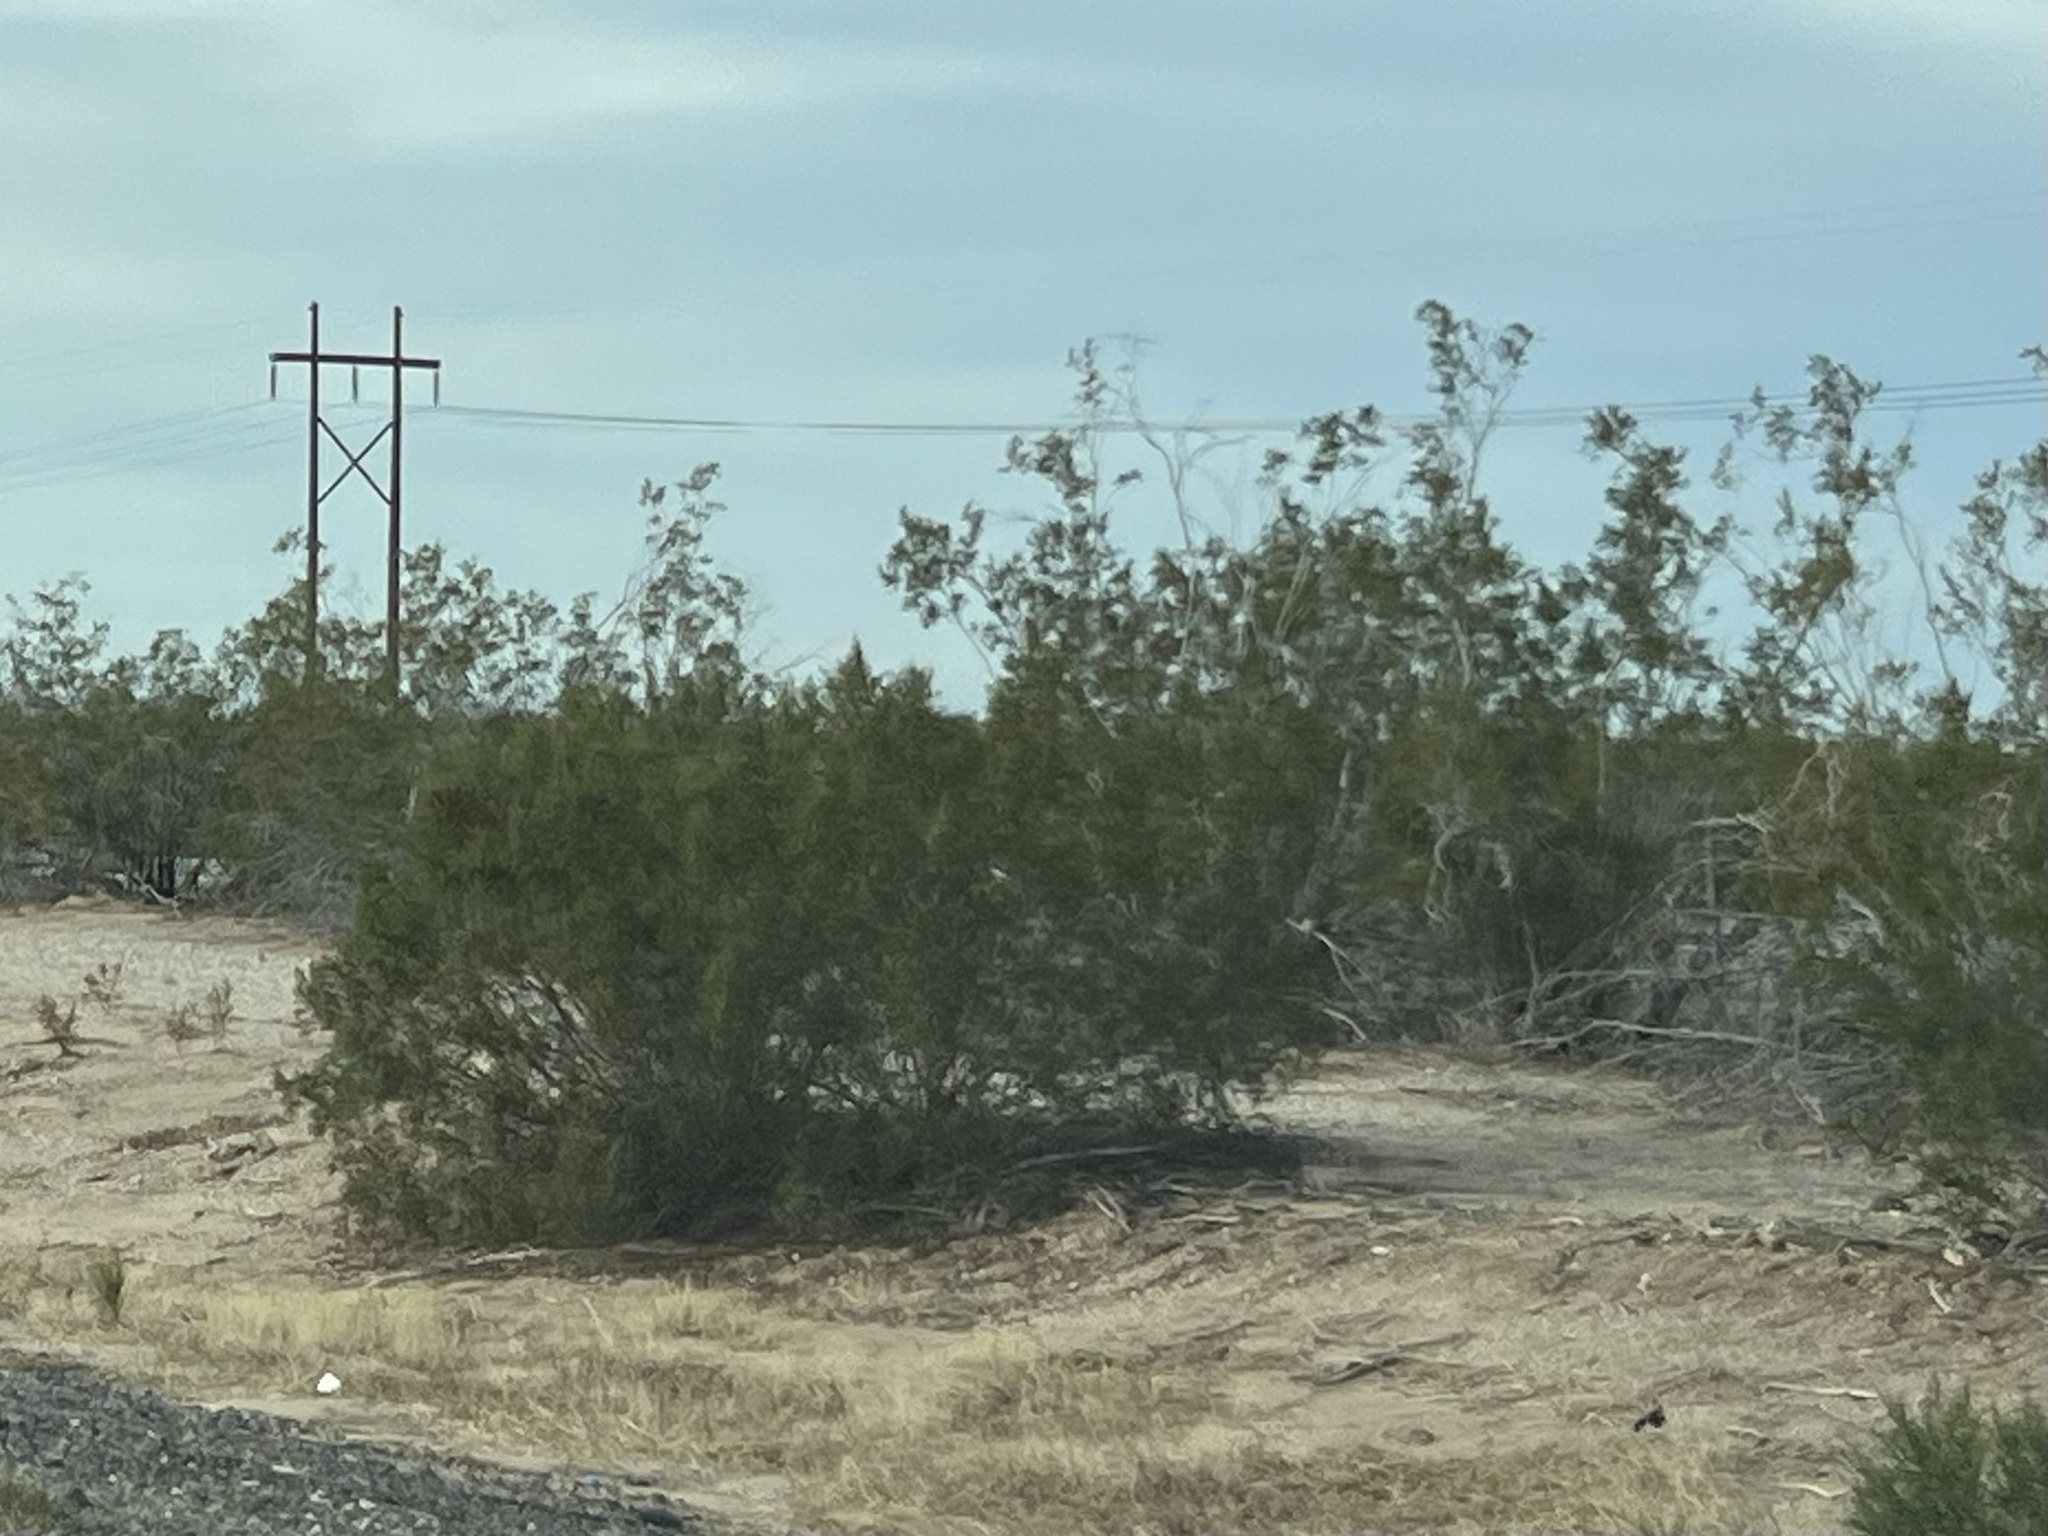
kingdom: Plantae
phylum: Tracheophyta
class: Magnoliopsida
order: Zygophyllales
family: Zygophyllaceae
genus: Larrea
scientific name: Larrea tridentata
